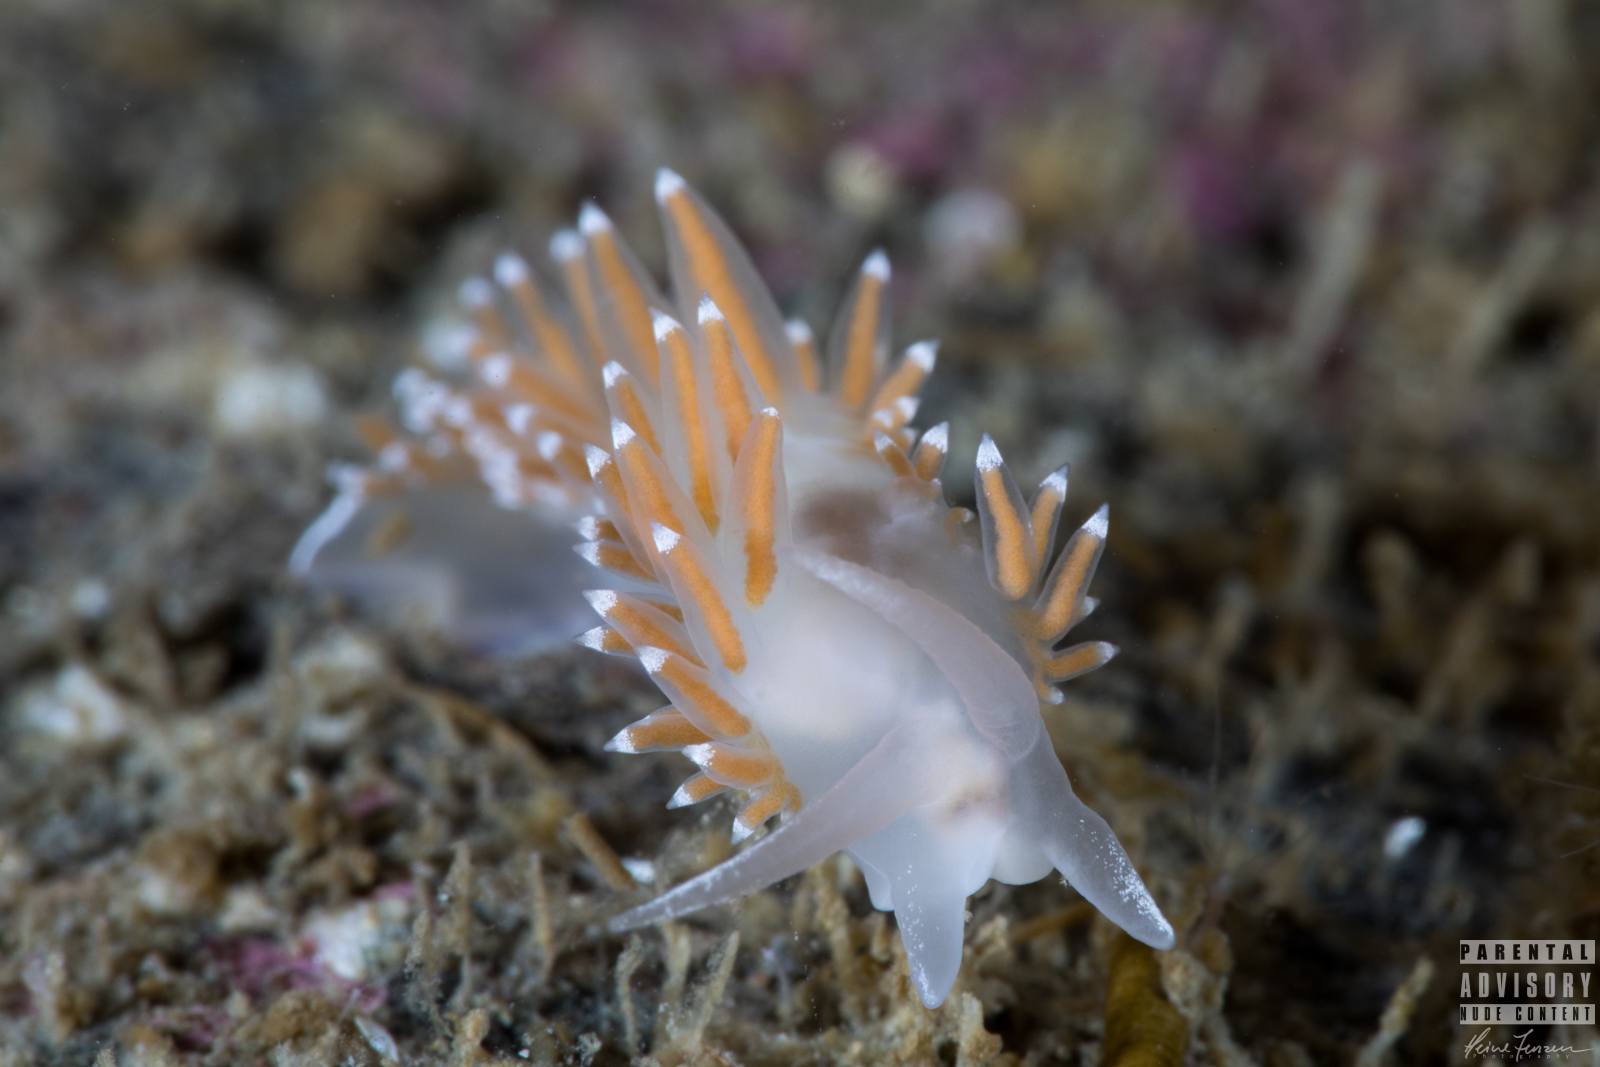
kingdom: Animalia
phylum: Mollusca
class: Gastropoda
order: Nudibranchia
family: Coryphellidae
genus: Coryphella
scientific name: Coryphella verrucosa
